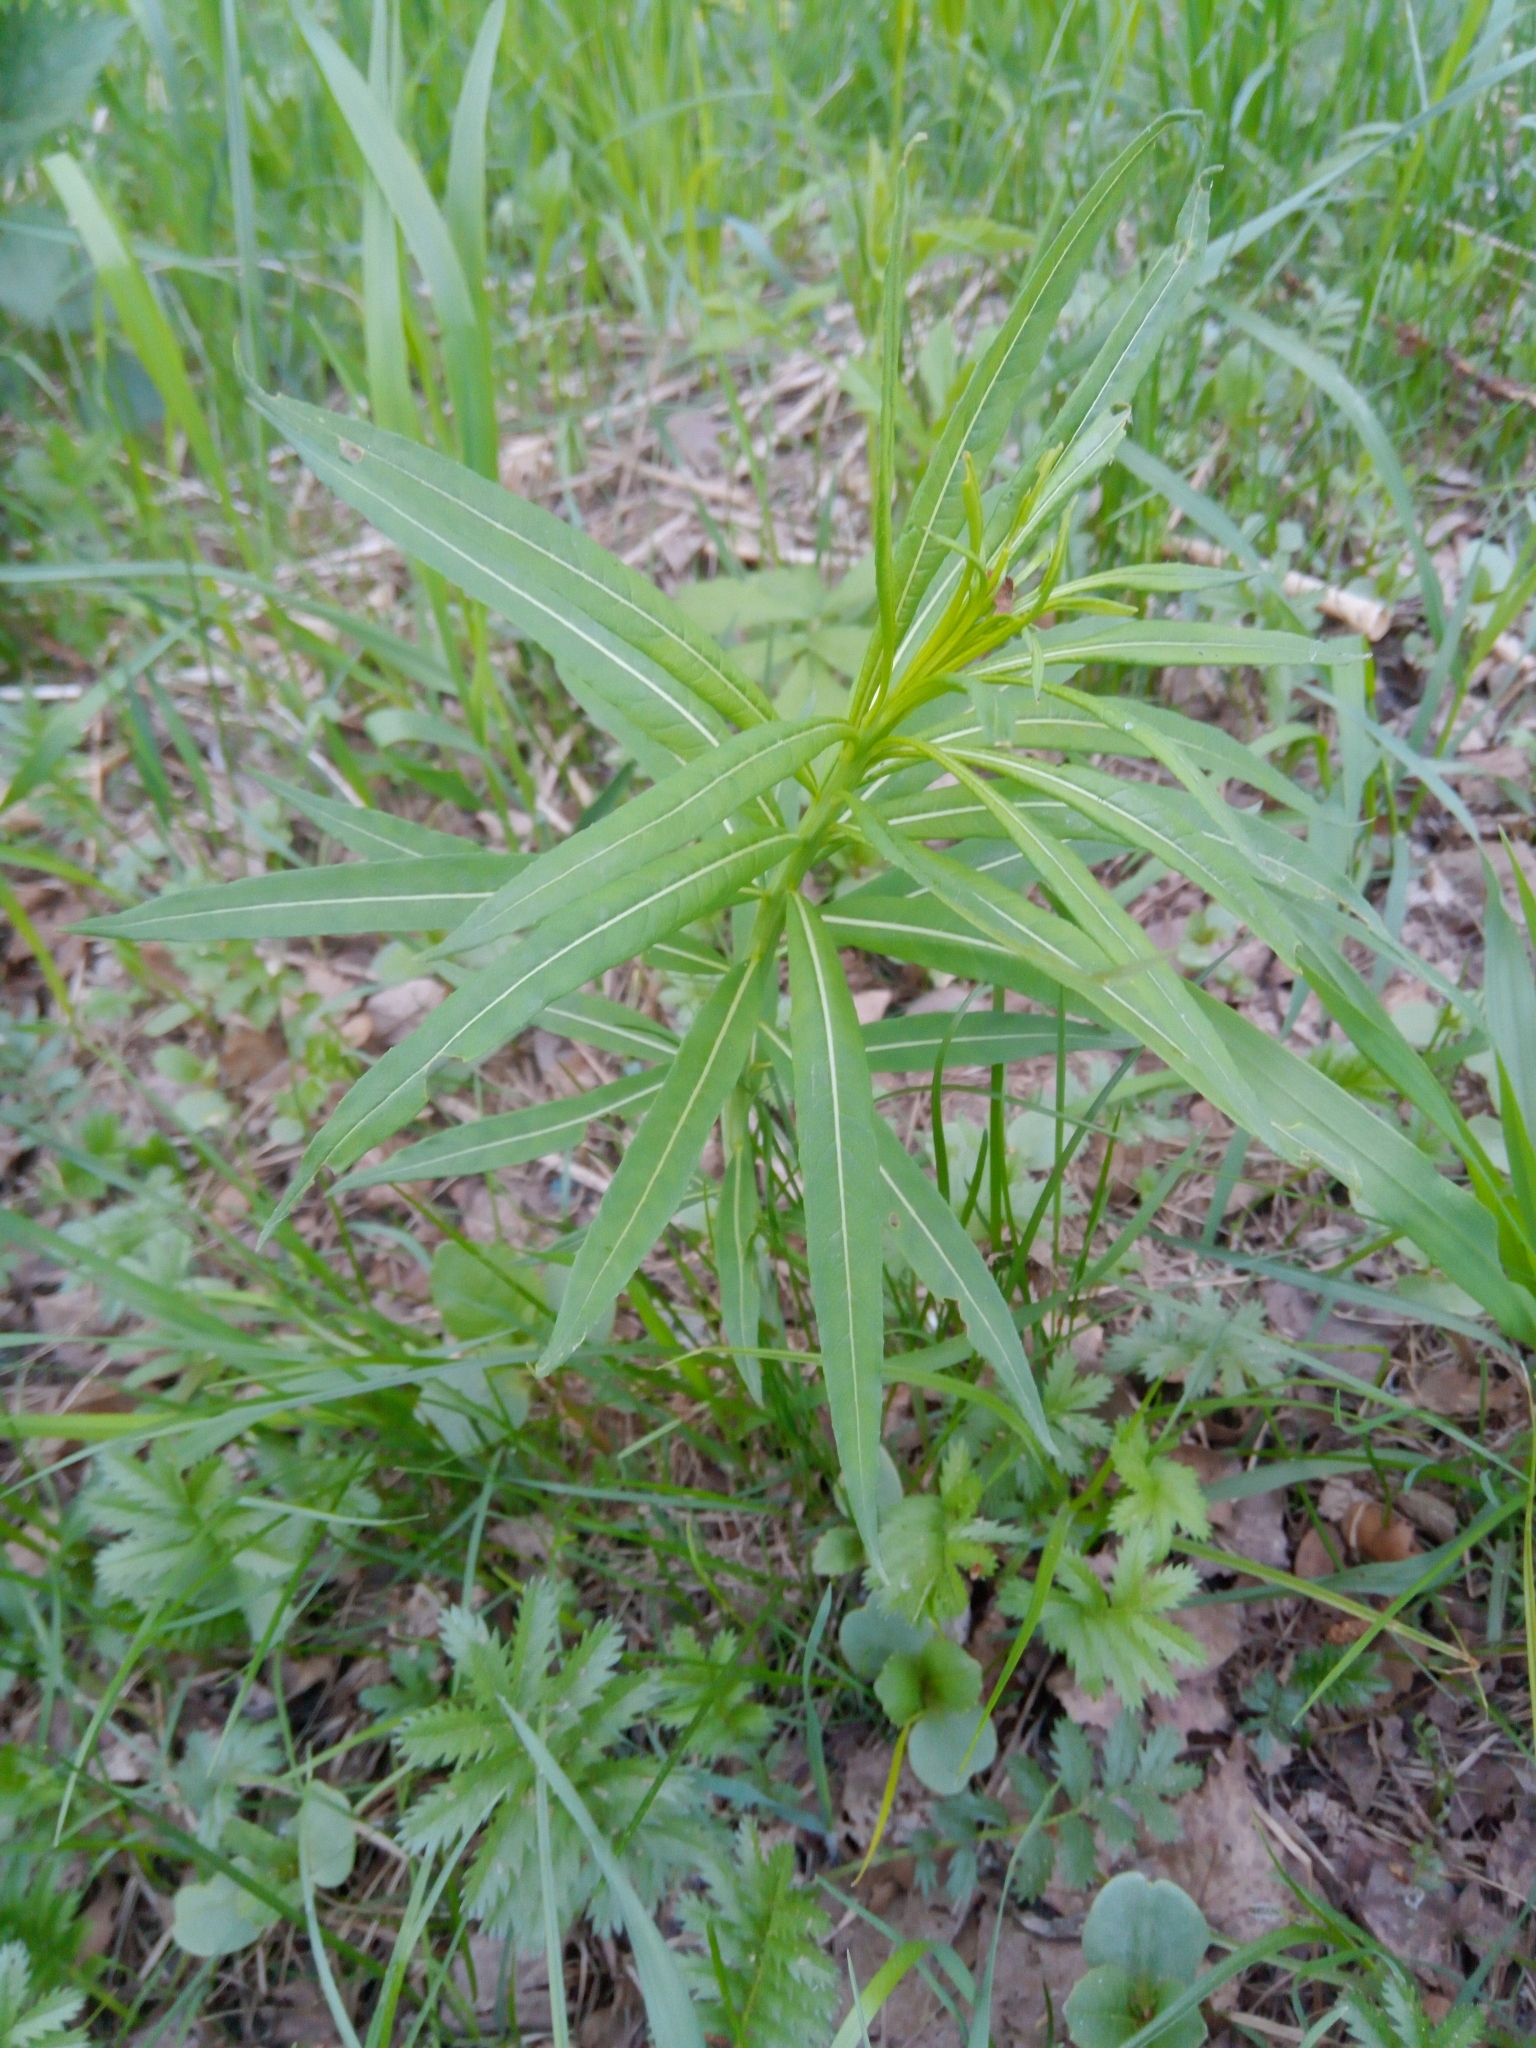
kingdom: Plantae
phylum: Tracheophyta
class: Magnoliopsida
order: Myrtales
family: Onagraceae
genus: Chamaenerion
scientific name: Chamaenerion angustifolium
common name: Fireweed
